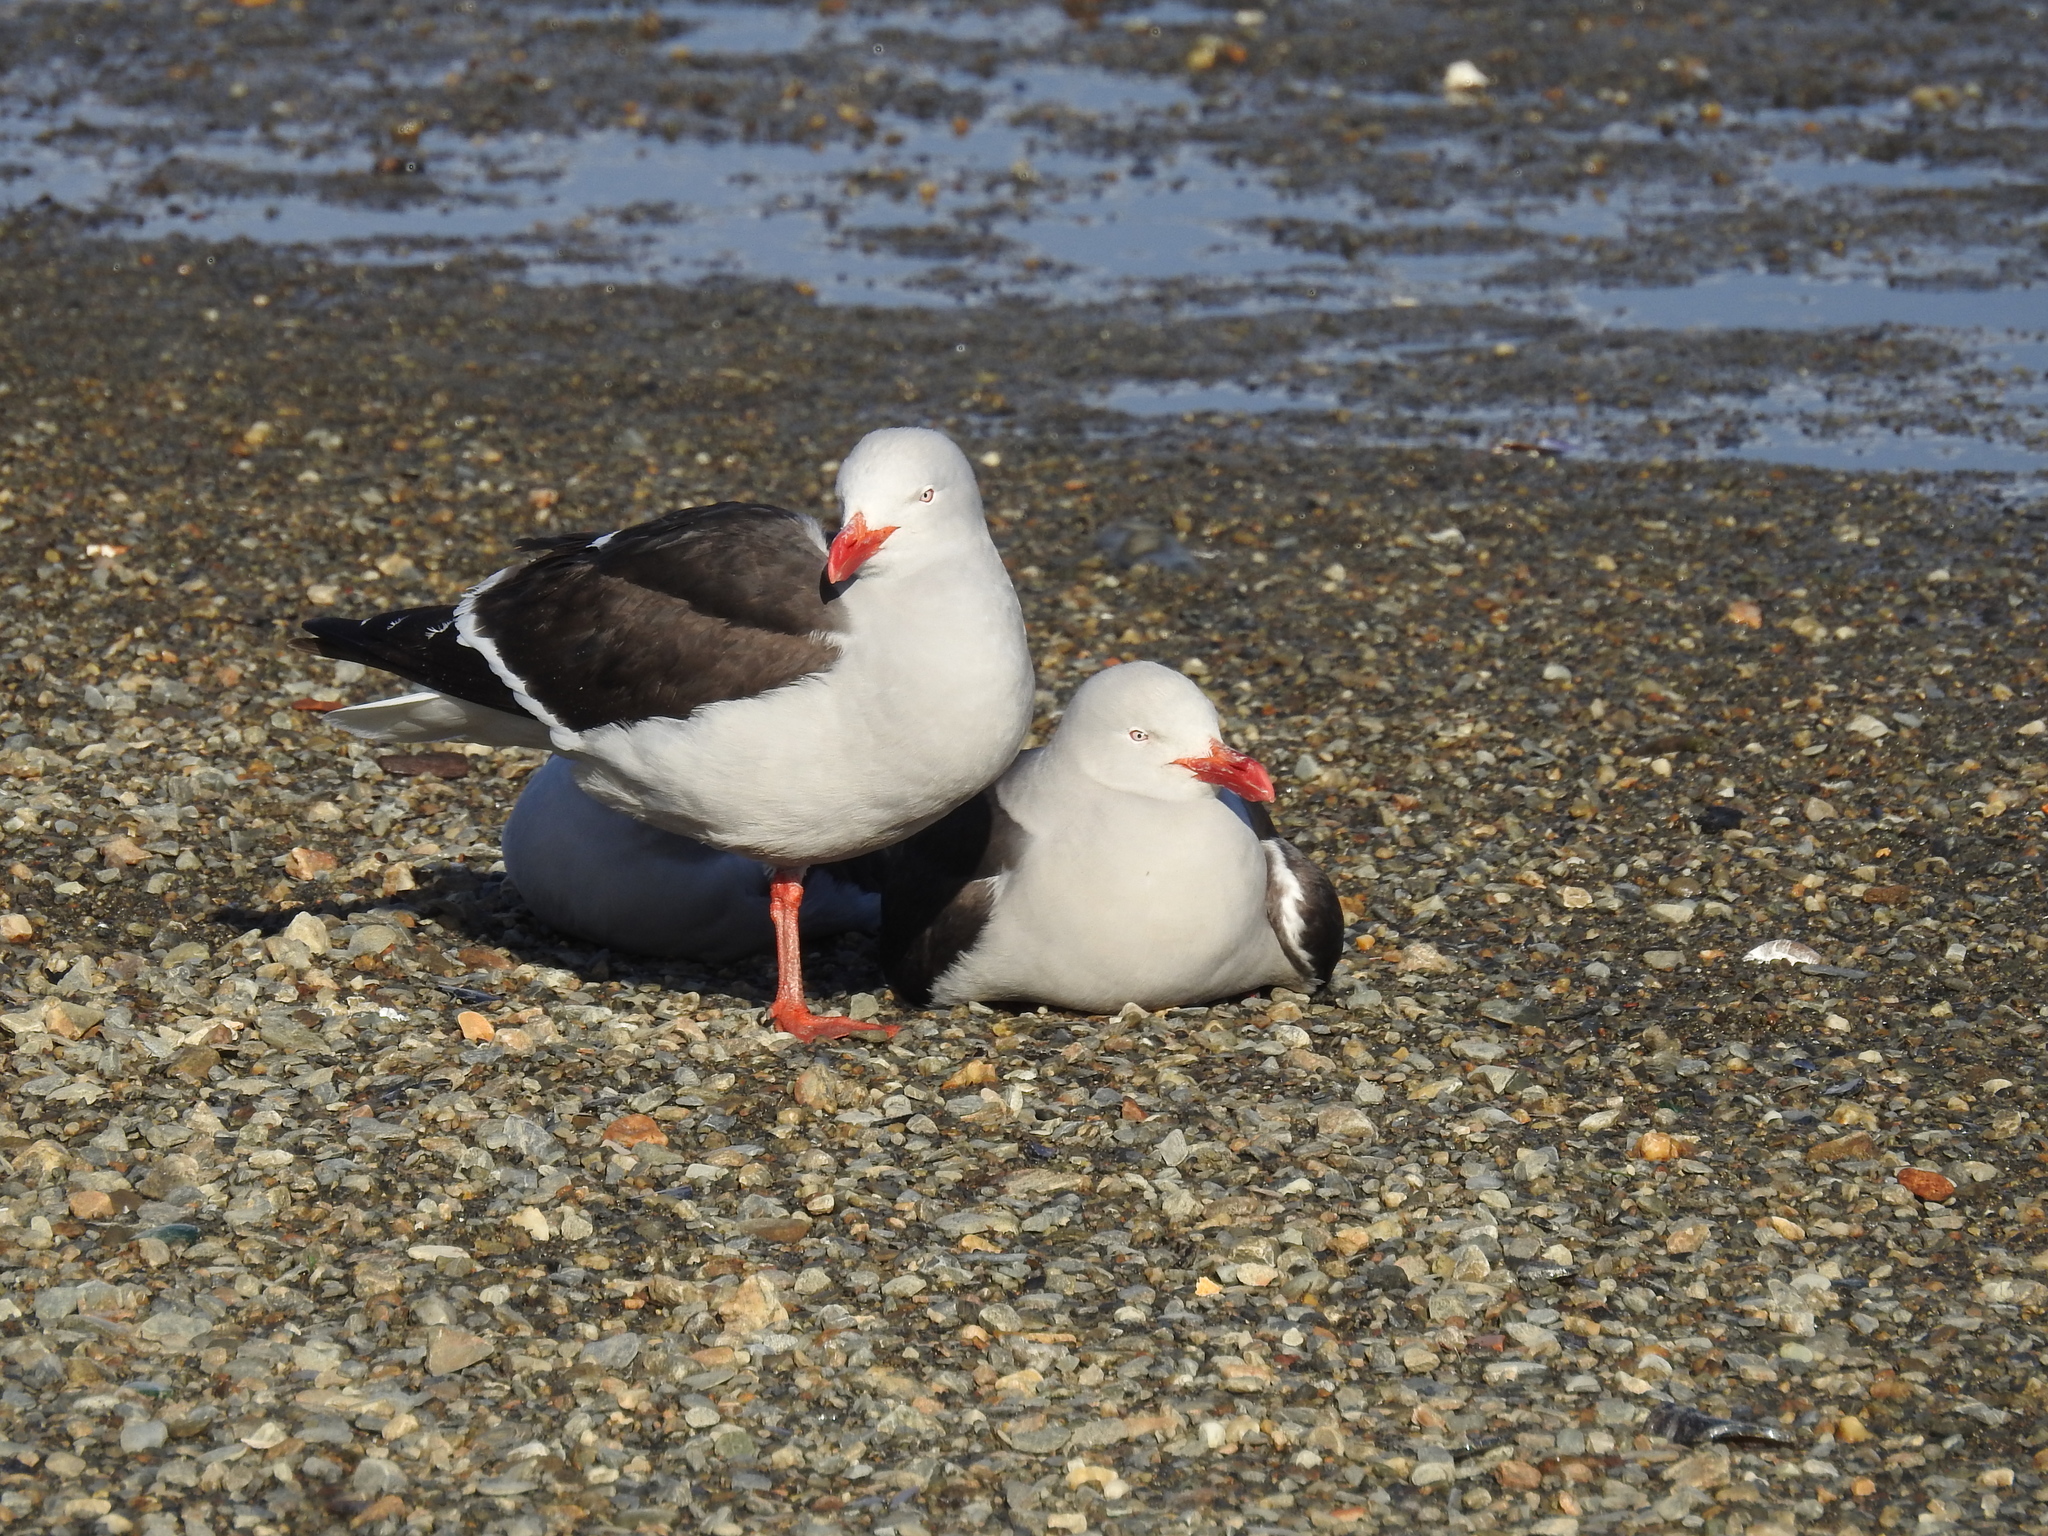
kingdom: Animalia
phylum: Chordata
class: Aves
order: Charadriiformes
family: Laridae
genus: Leucophaeus
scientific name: Leucophaeus scoresbii
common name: Dolphin gull
